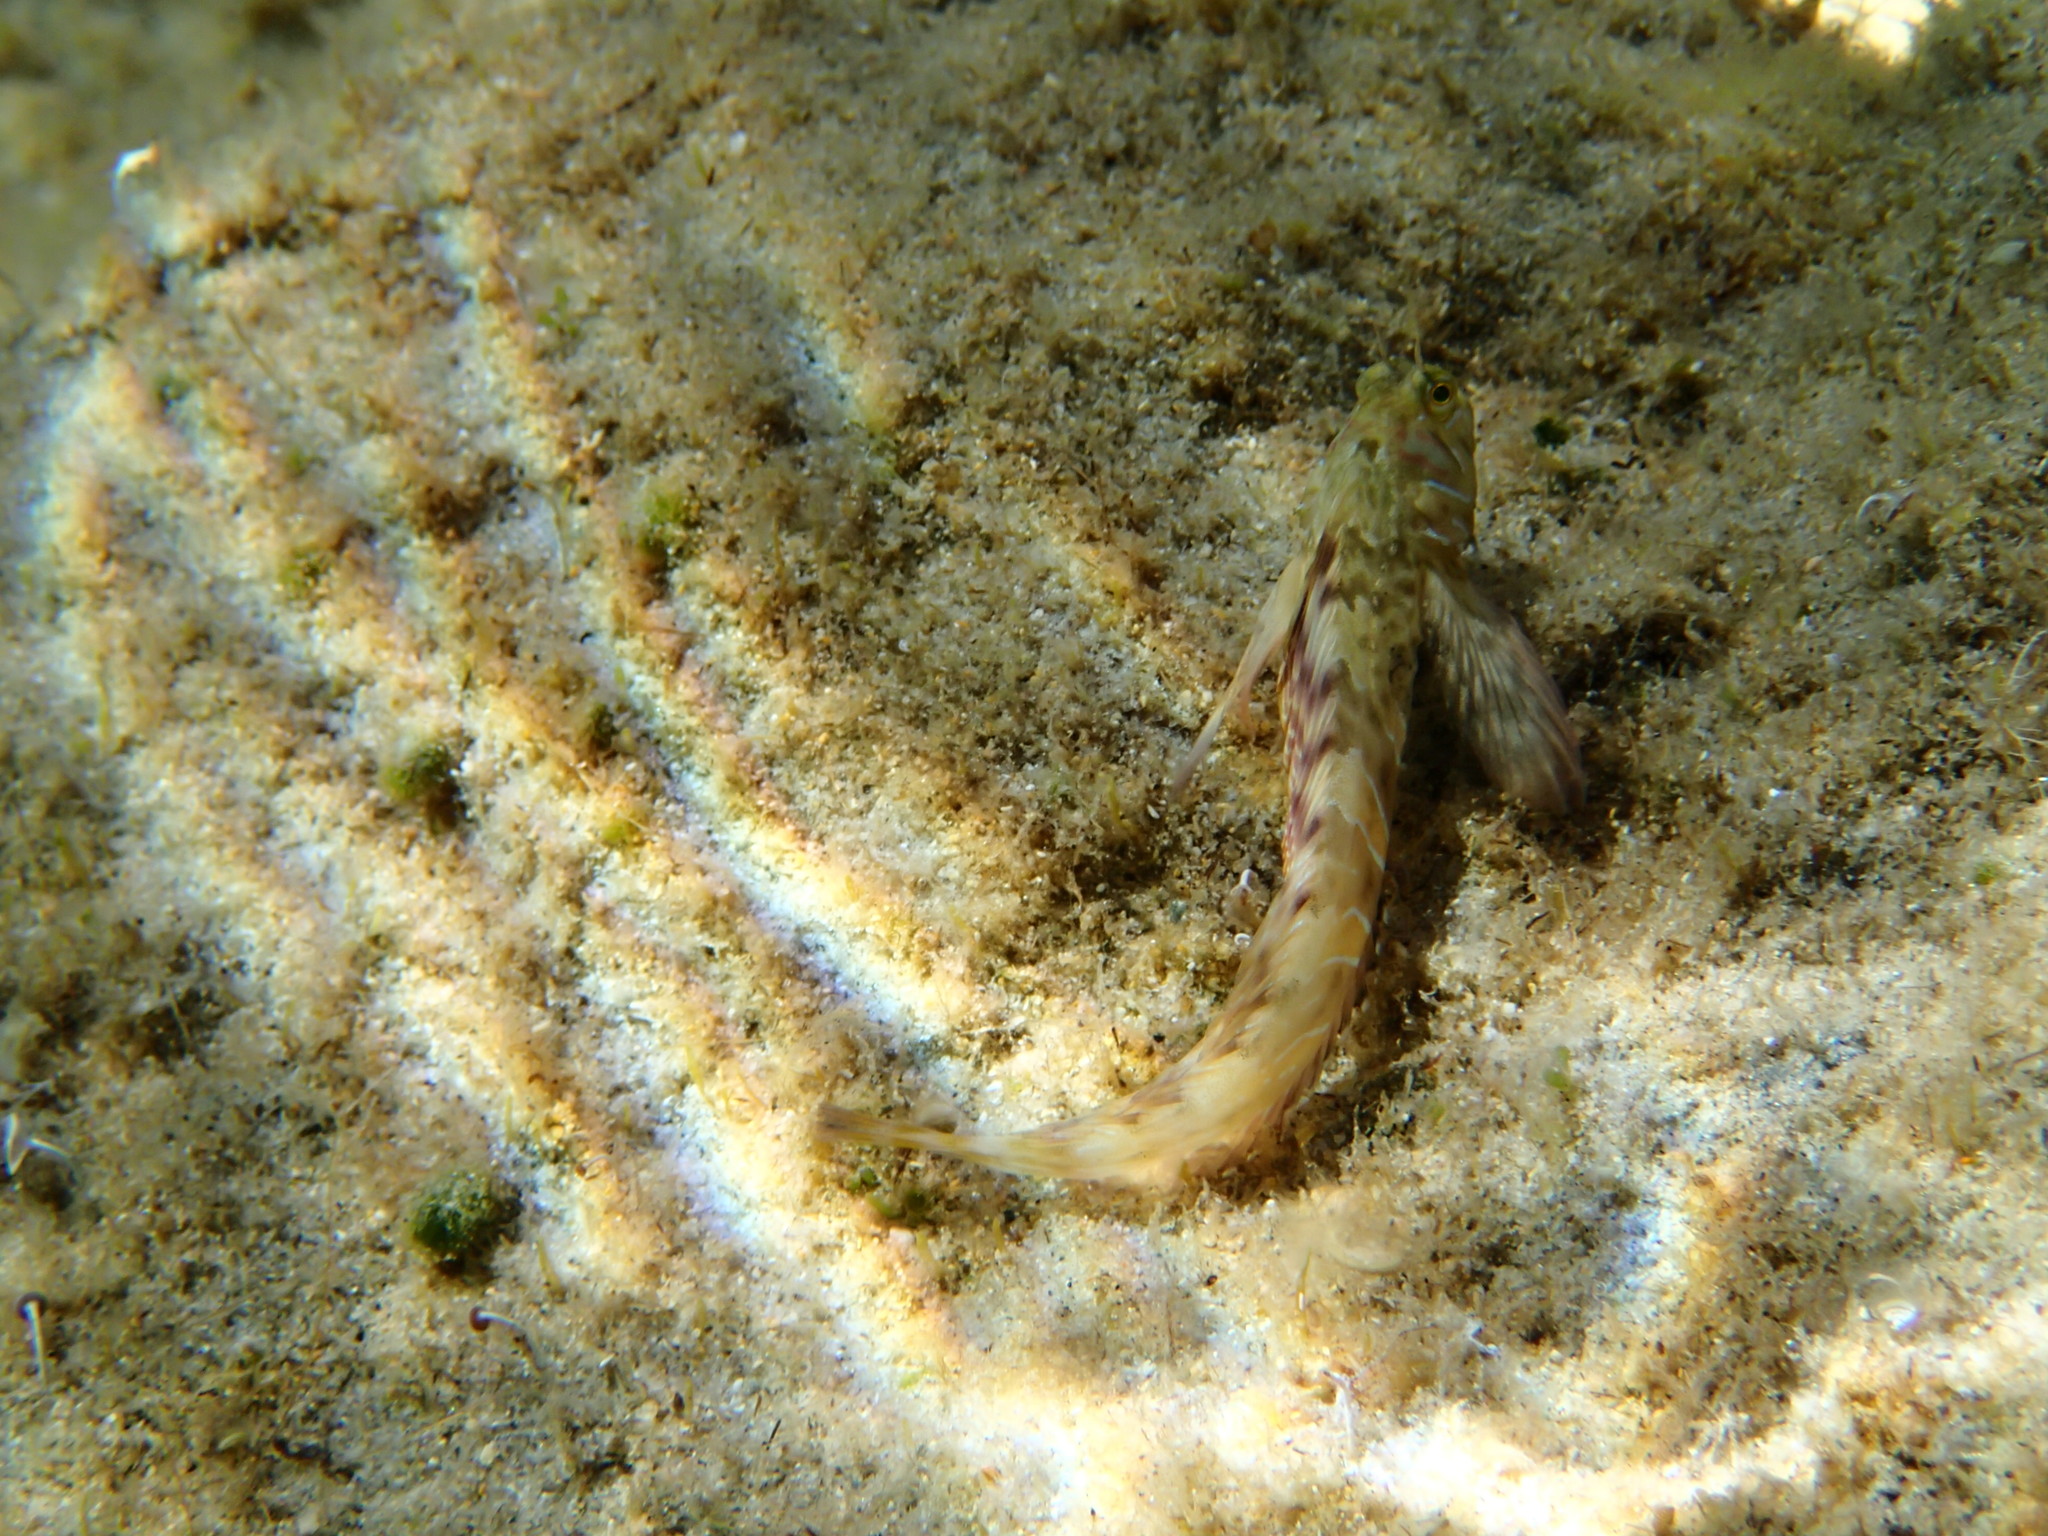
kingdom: Animalia
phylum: Chordata
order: Perciformes
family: Blenniidae
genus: Aidablennius
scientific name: Aidablennius sphynx
